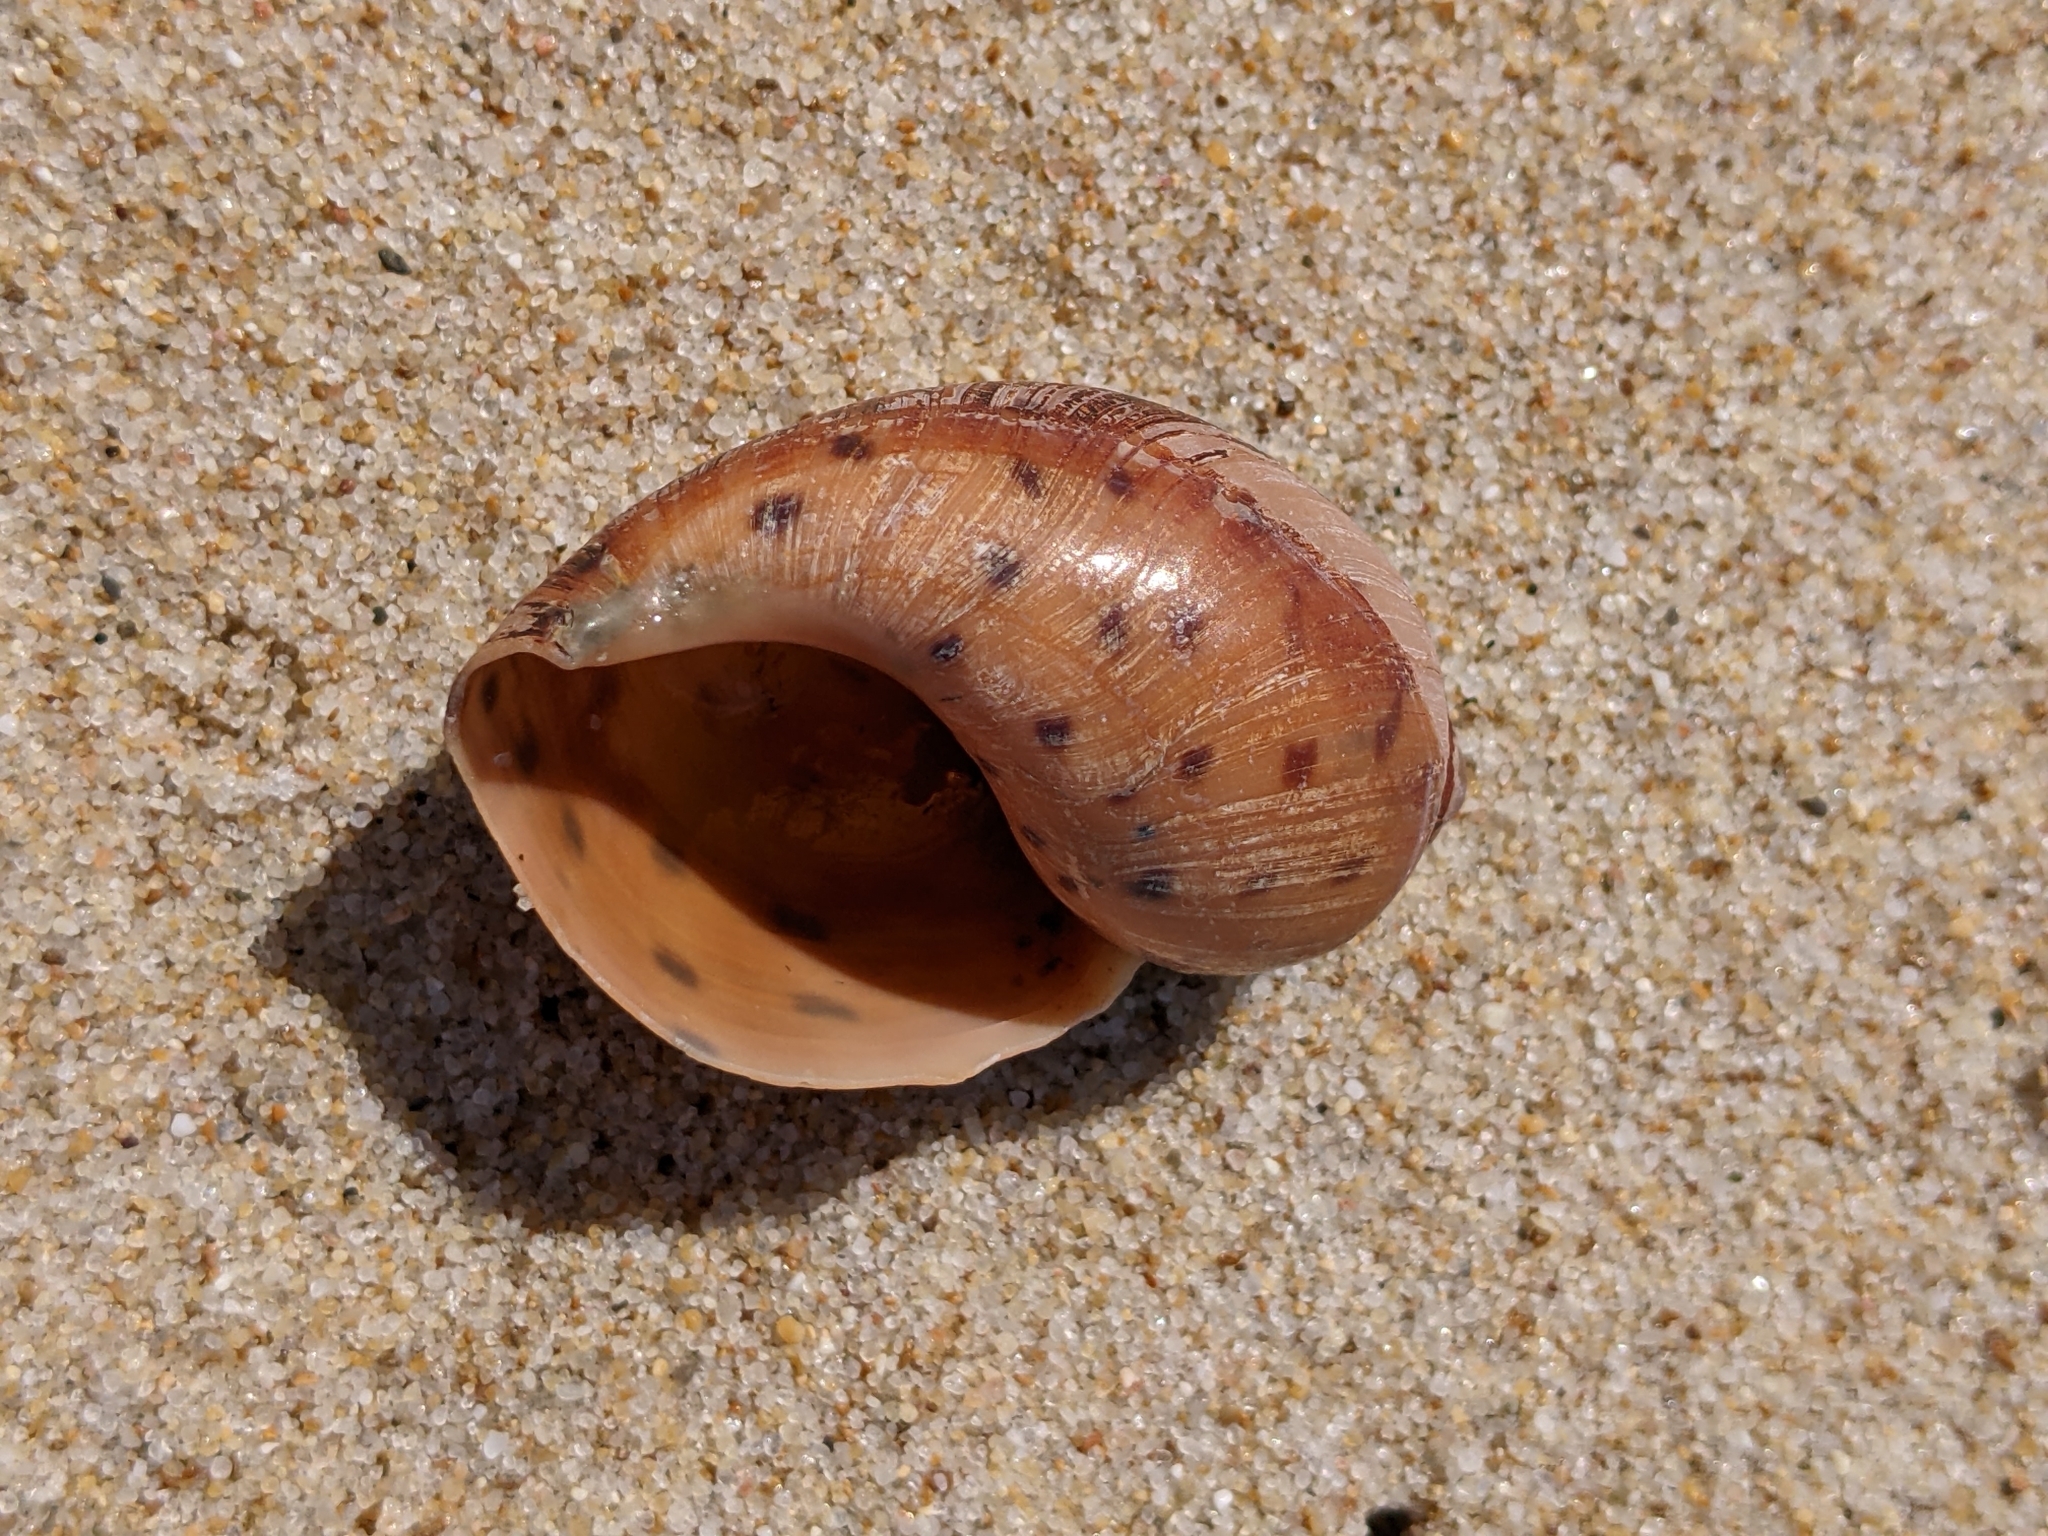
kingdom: Animalia
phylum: Mollusca
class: Gastropoda
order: Neogastropoda
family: Volutidae
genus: Ampulla
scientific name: Ampulla priamus
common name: Spotted flask
